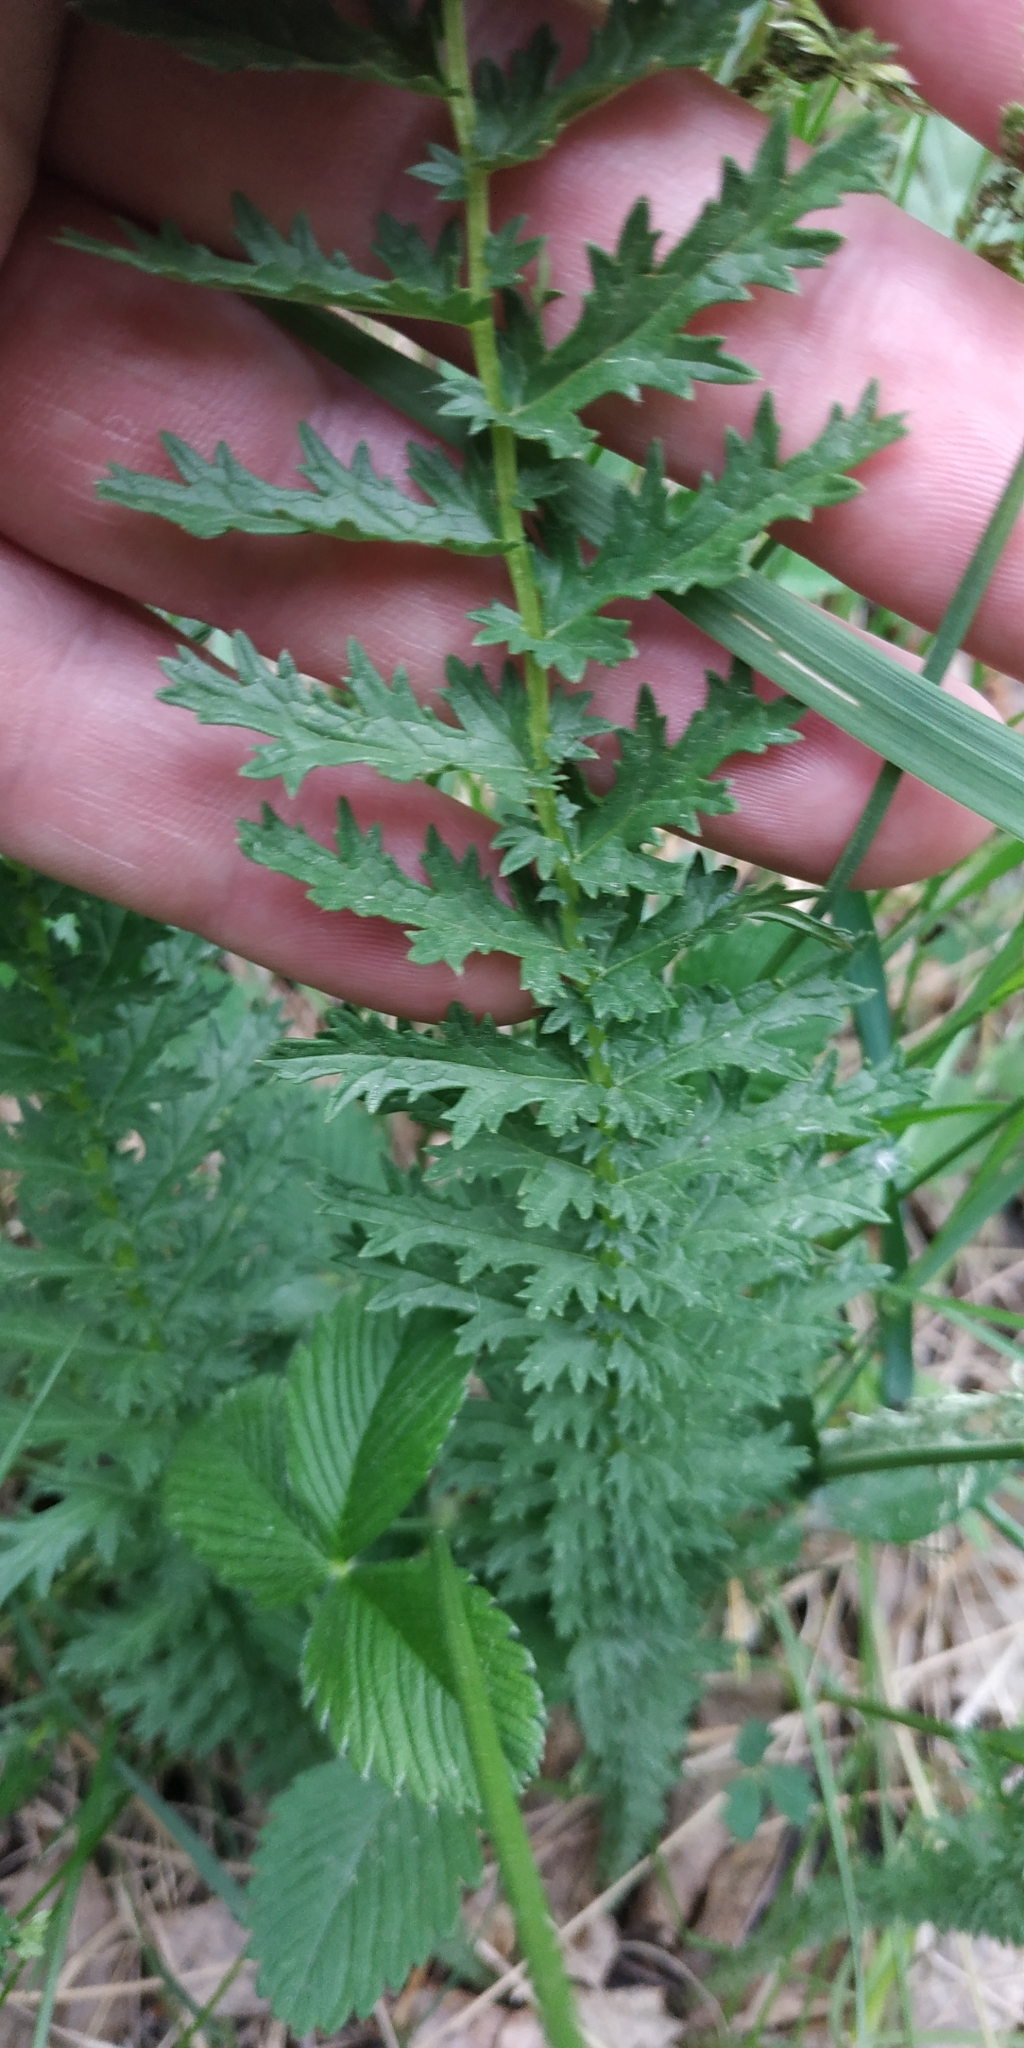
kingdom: Plantae
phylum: Tracheophyta
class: Magnoliopsida
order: Rosales
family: Rosaceae
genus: Filipendula
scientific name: Filipendula vulgaris
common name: Dropwort
